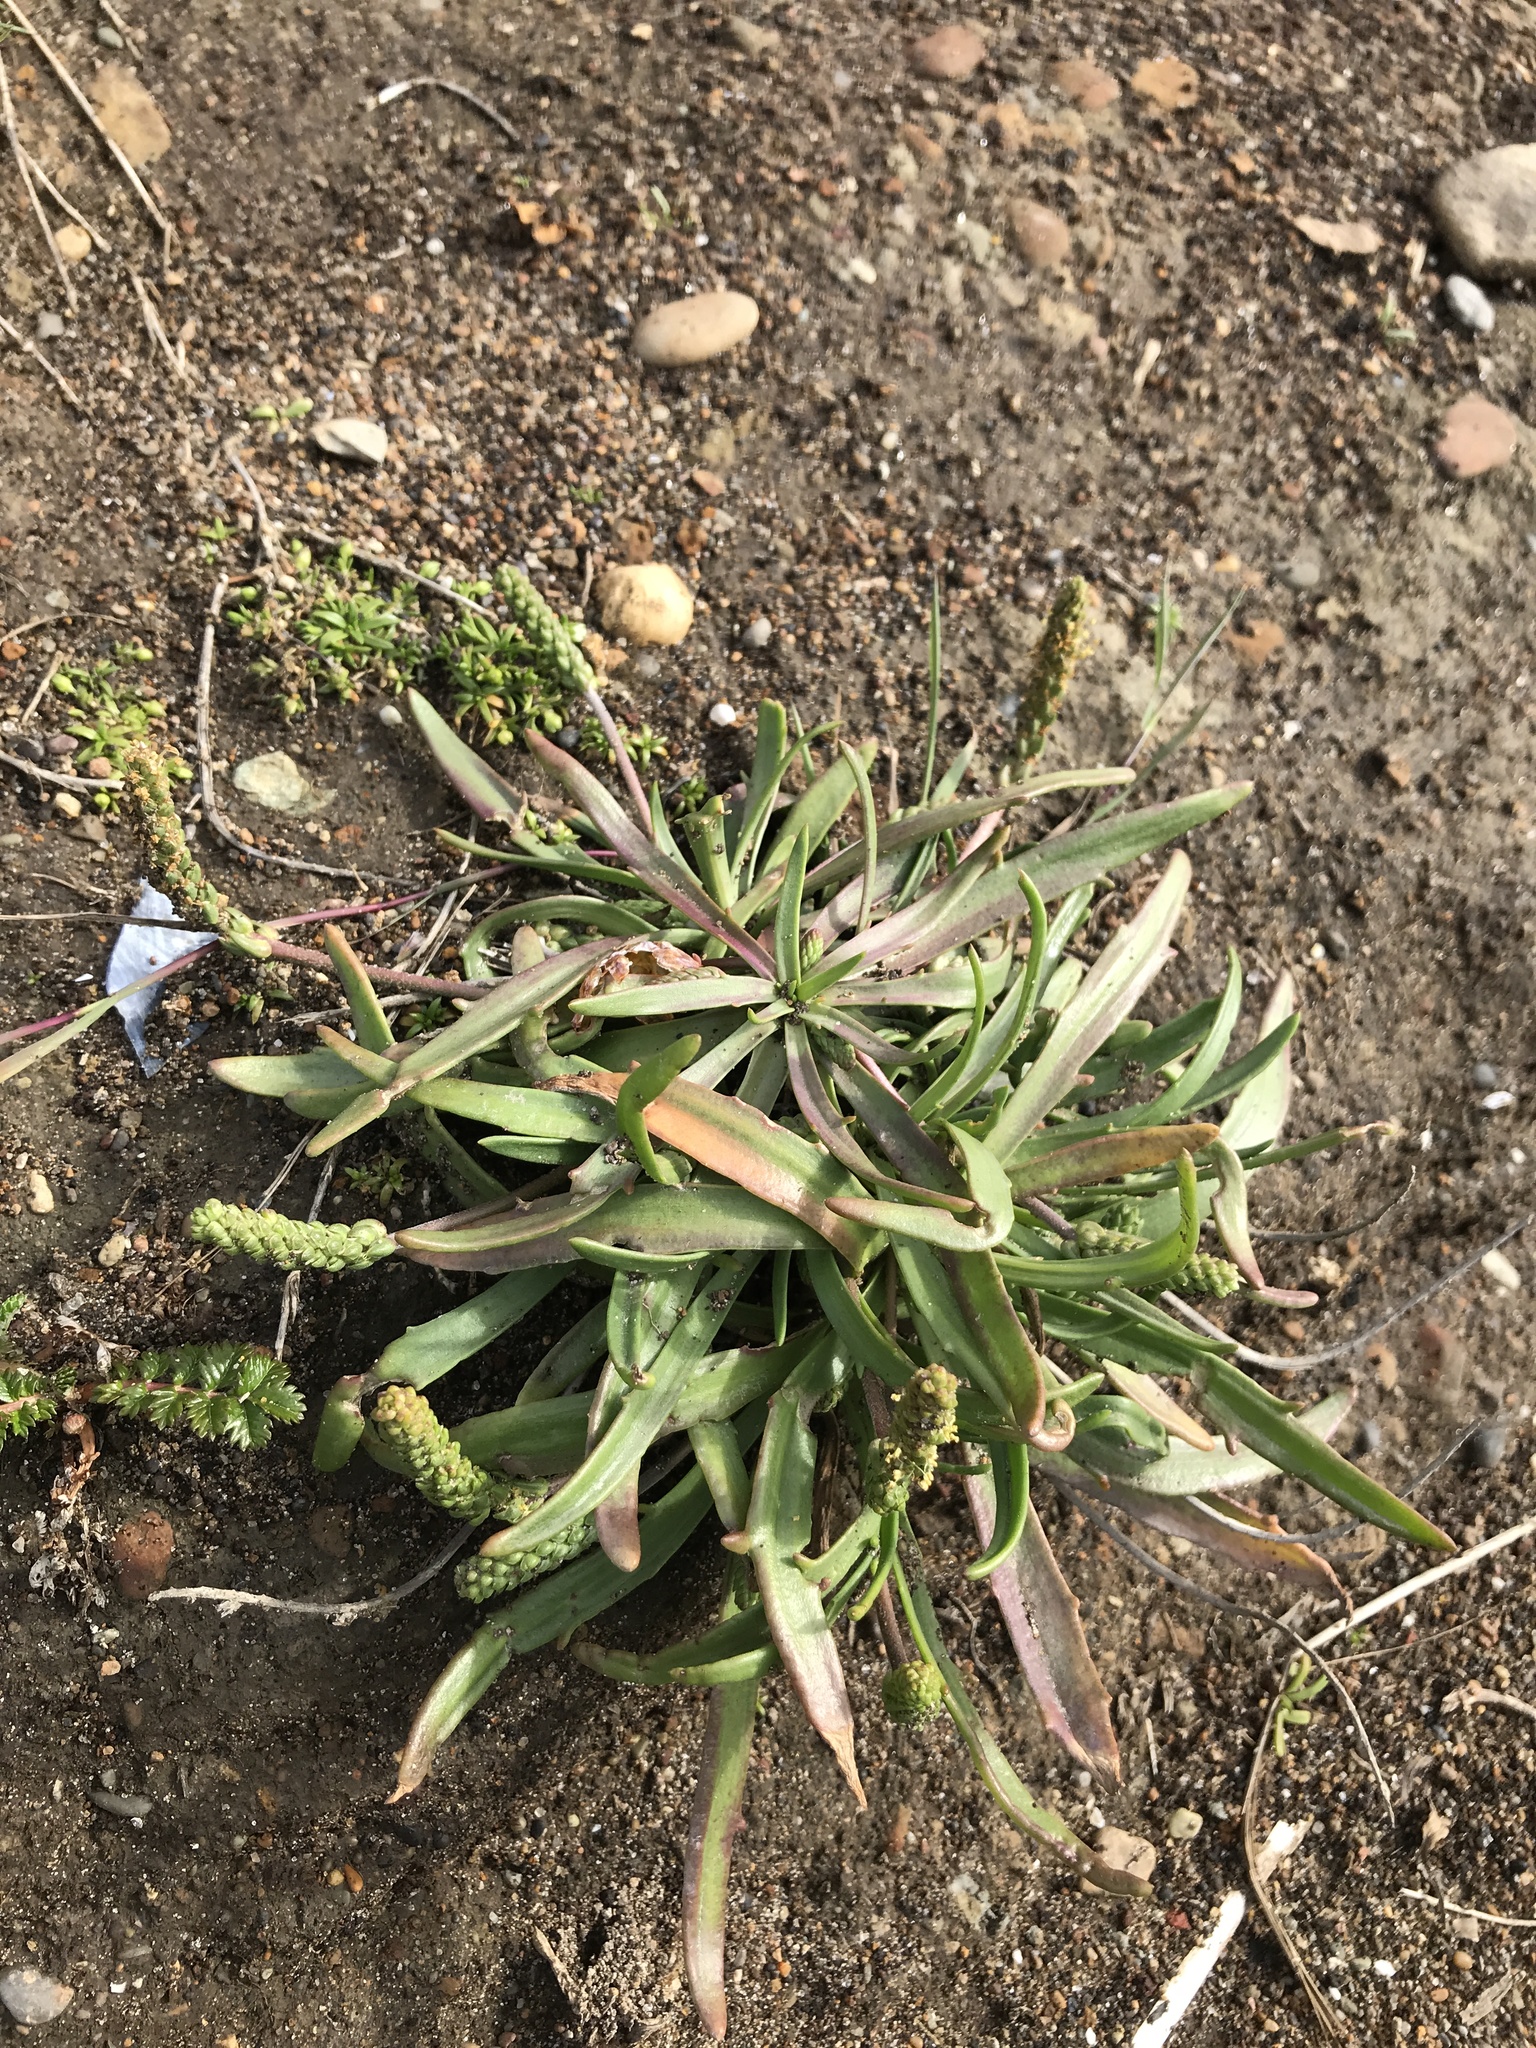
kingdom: Plantae
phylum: Tracheophyta
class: Magnoliopsida
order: Lamiales
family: Plantaginaceae
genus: Plantago
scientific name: Plantago maritima
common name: Sea plantain
